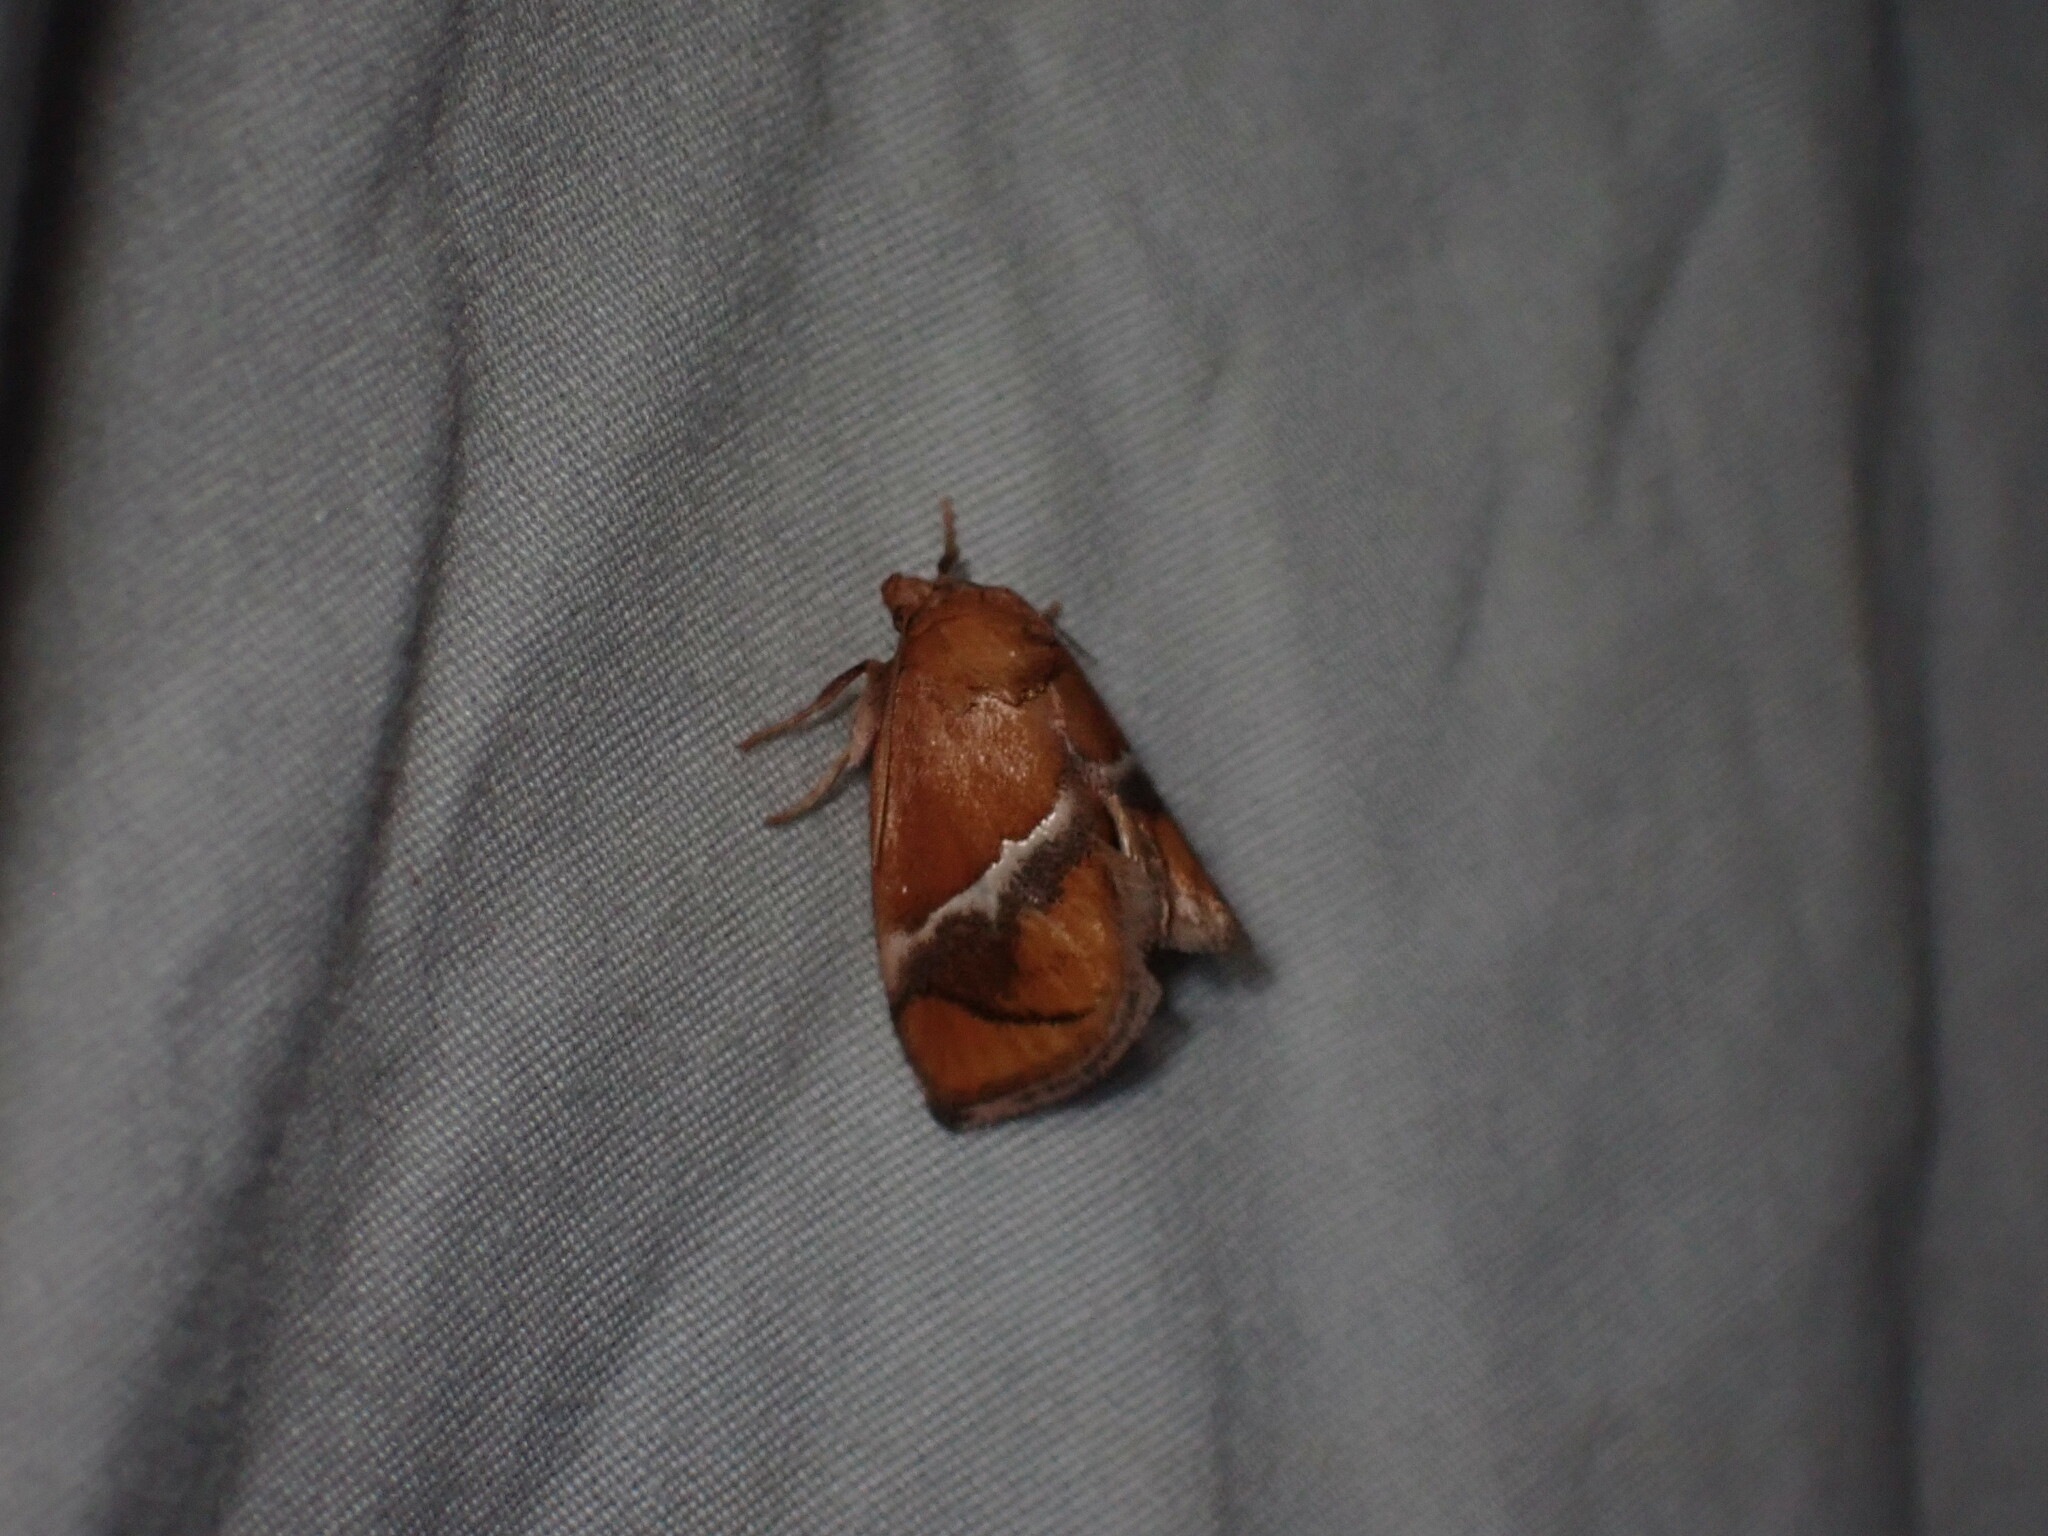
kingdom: Animalia
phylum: Arthropoda
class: Insecta
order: Lepidoptera
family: Limacodidae
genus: Lithacodes
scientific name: Lithacodes fasciola
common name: Yellow-shouldered slug moth
